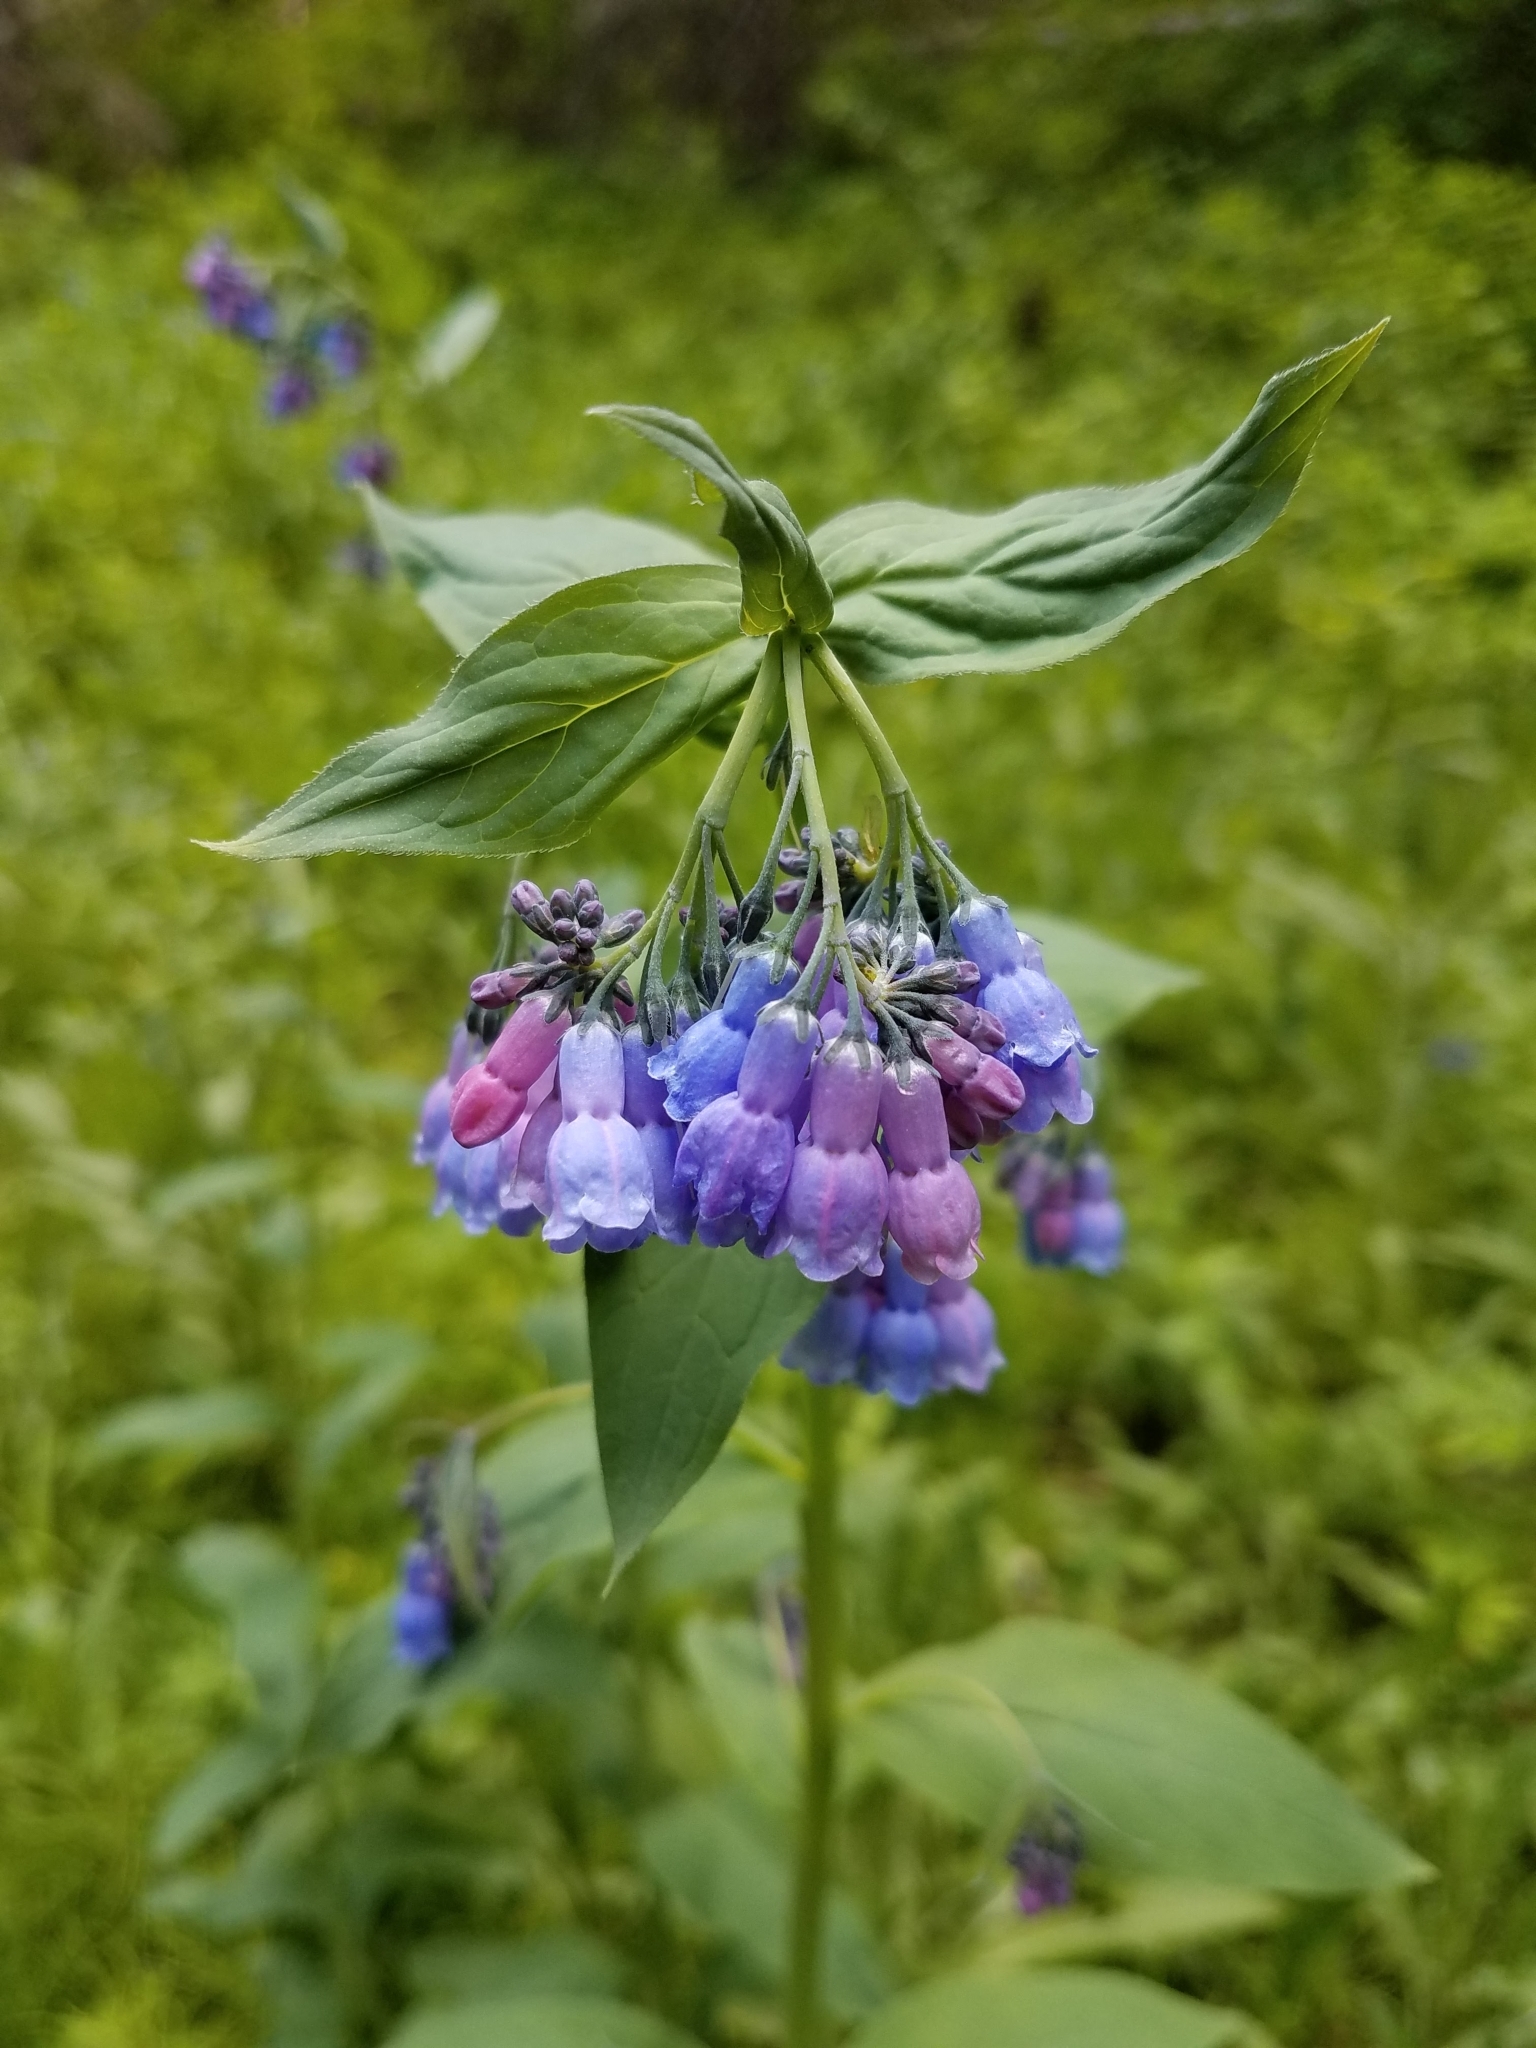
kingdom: Plantae
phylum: Tracheophyta
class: Magnoliopsida
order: Boraginales
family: Boraginaceae
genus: Mertensia
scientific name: Mertensia ciliata
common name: Tall chiming-bells
